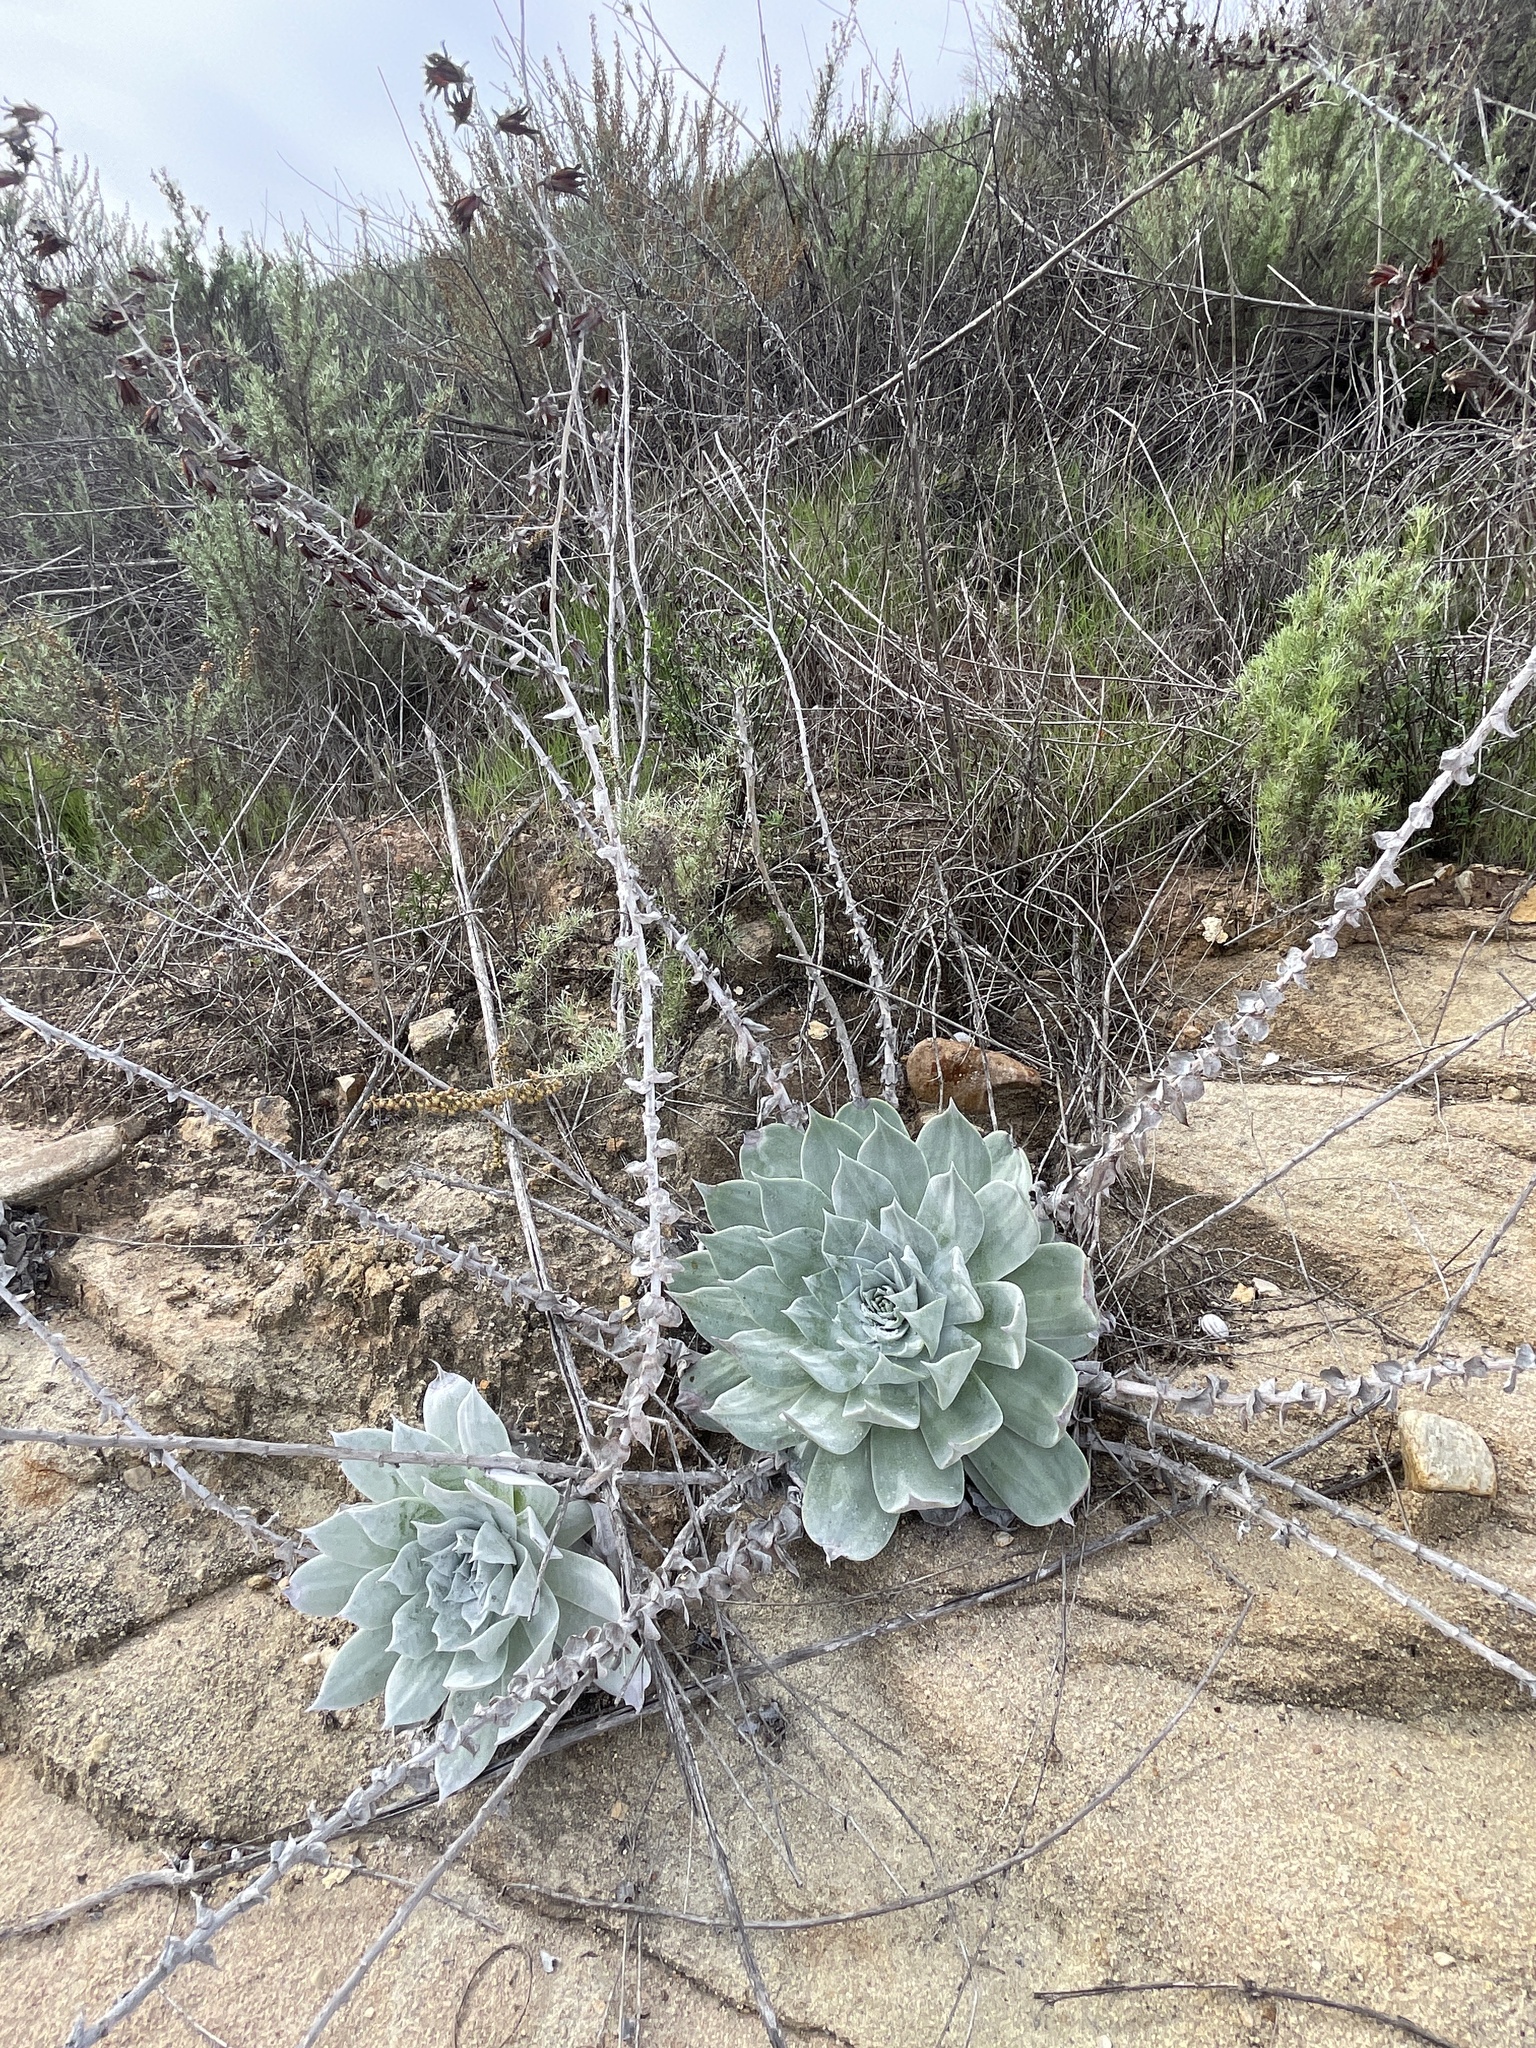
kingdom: Plantae
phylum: Tracheophyta
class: Magnoliopsida
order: Saxifragales
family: Crassulaceae
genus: Dudleya
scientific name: Dudleya pulverulenta
